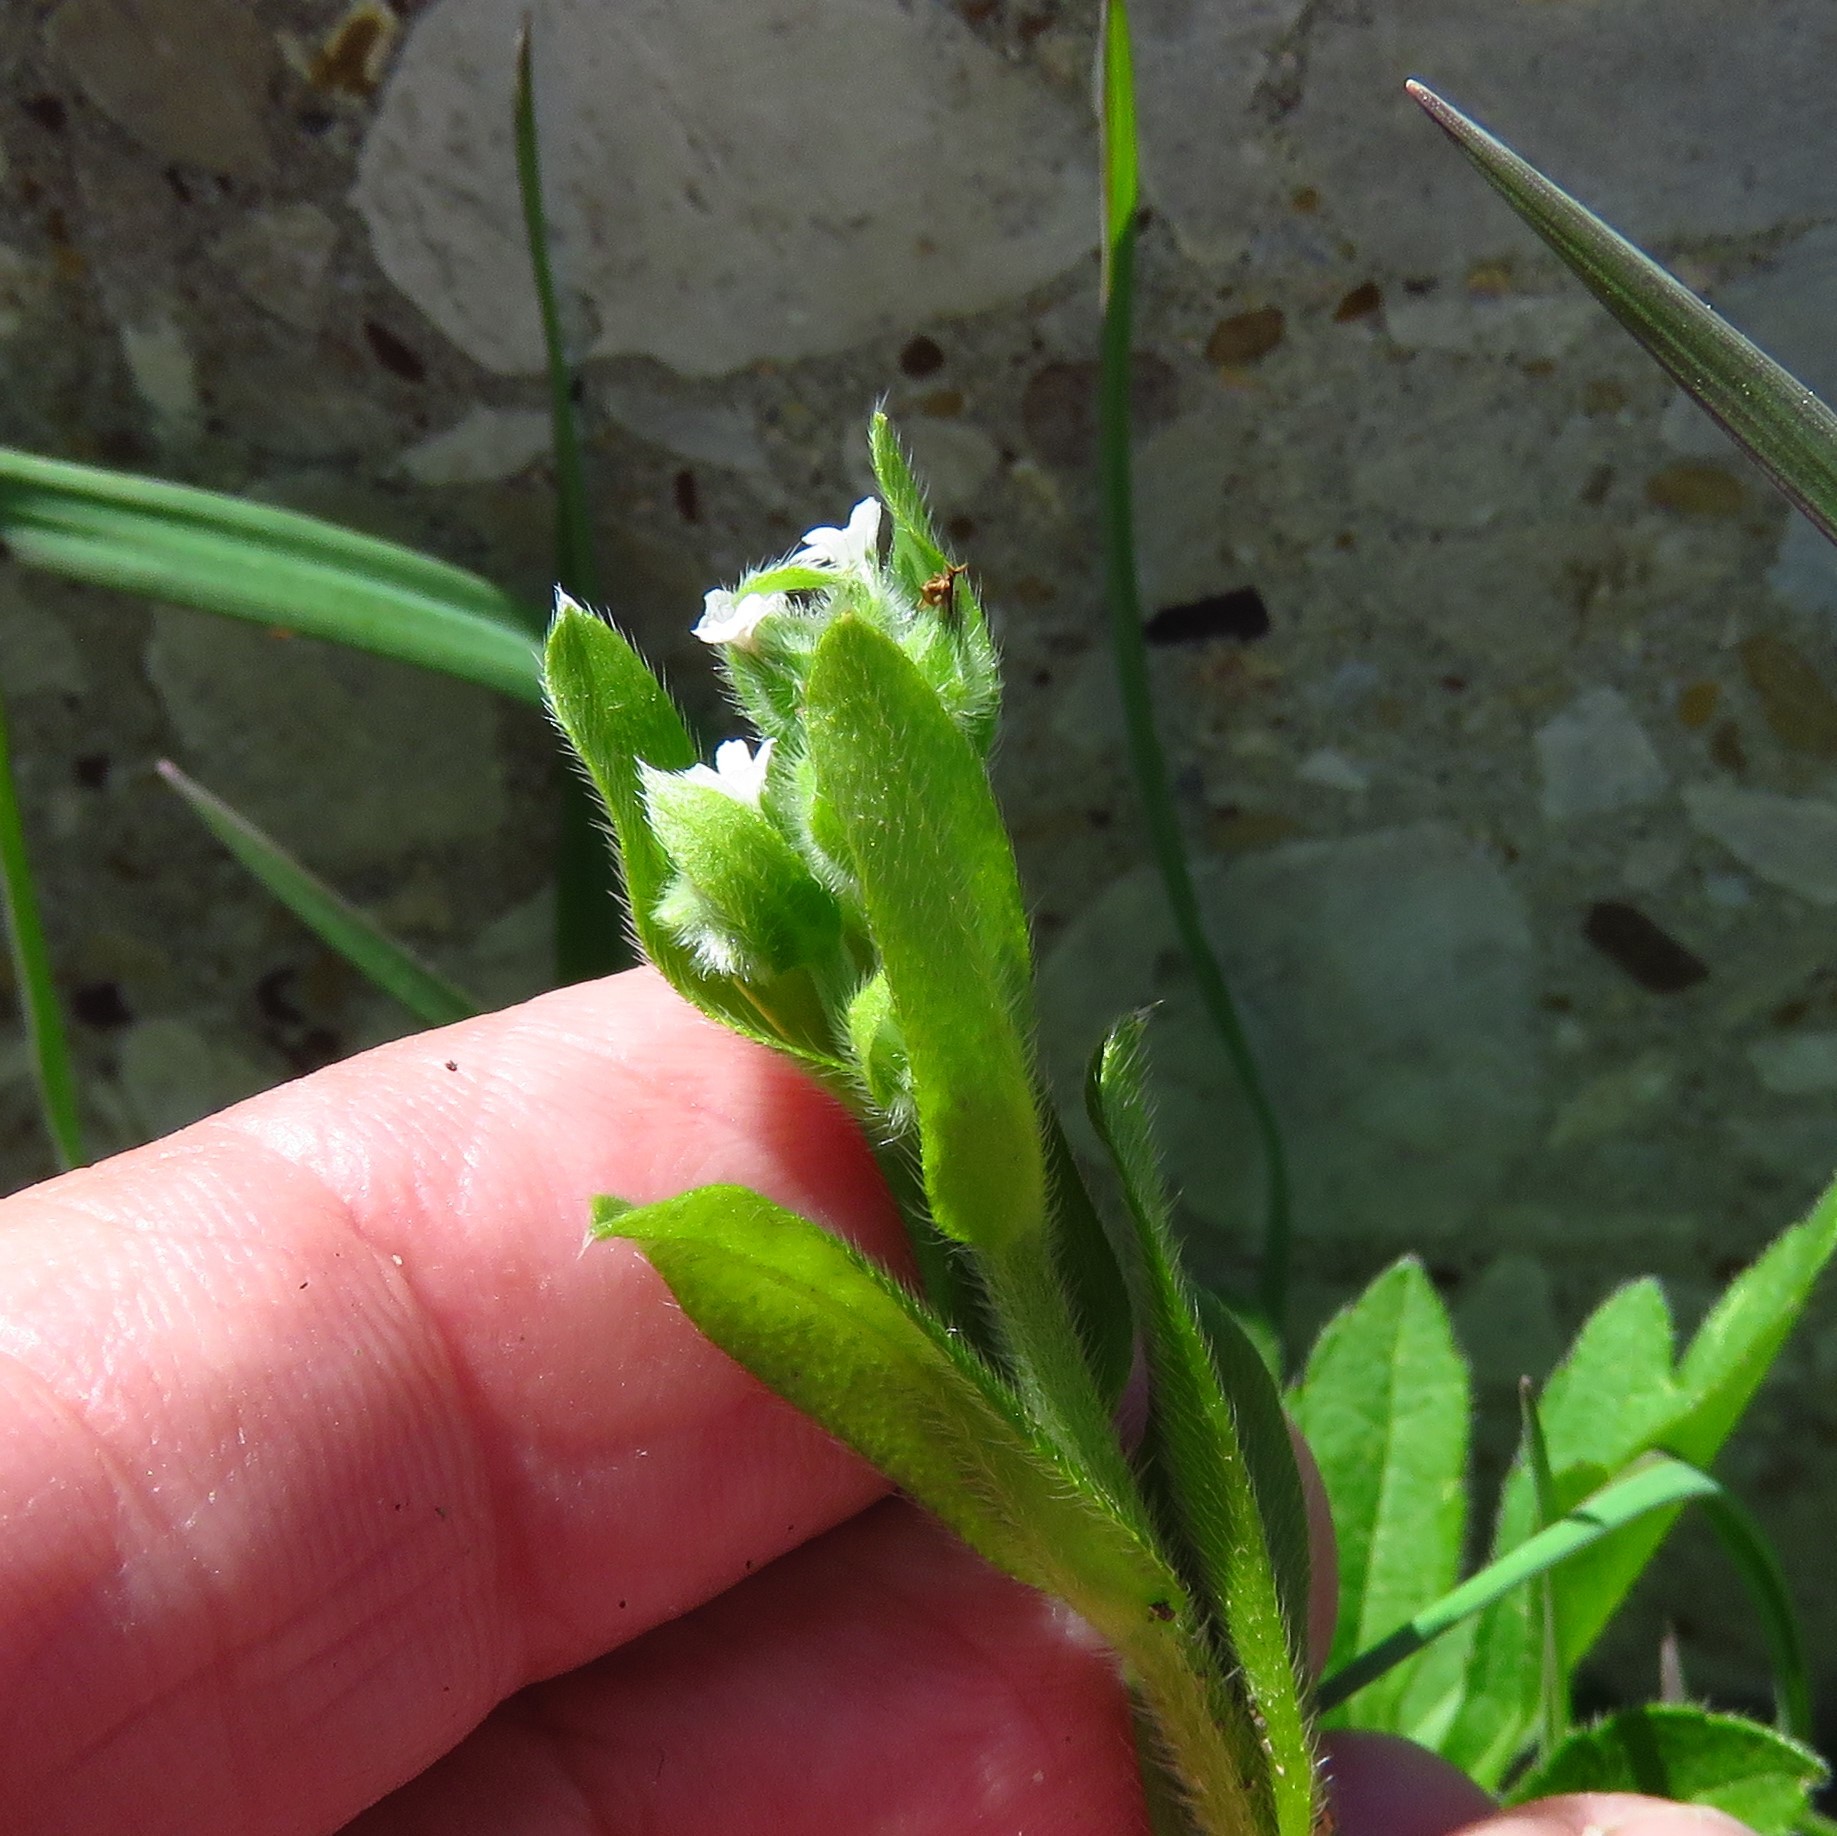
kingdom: Plantae
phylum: Tracheophyta
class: Magnoliopsida
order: Boraginales
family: Boraginaceae
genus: Myosotis
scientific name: Myosotis macrosperma
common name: Large-seed forget-me-not
